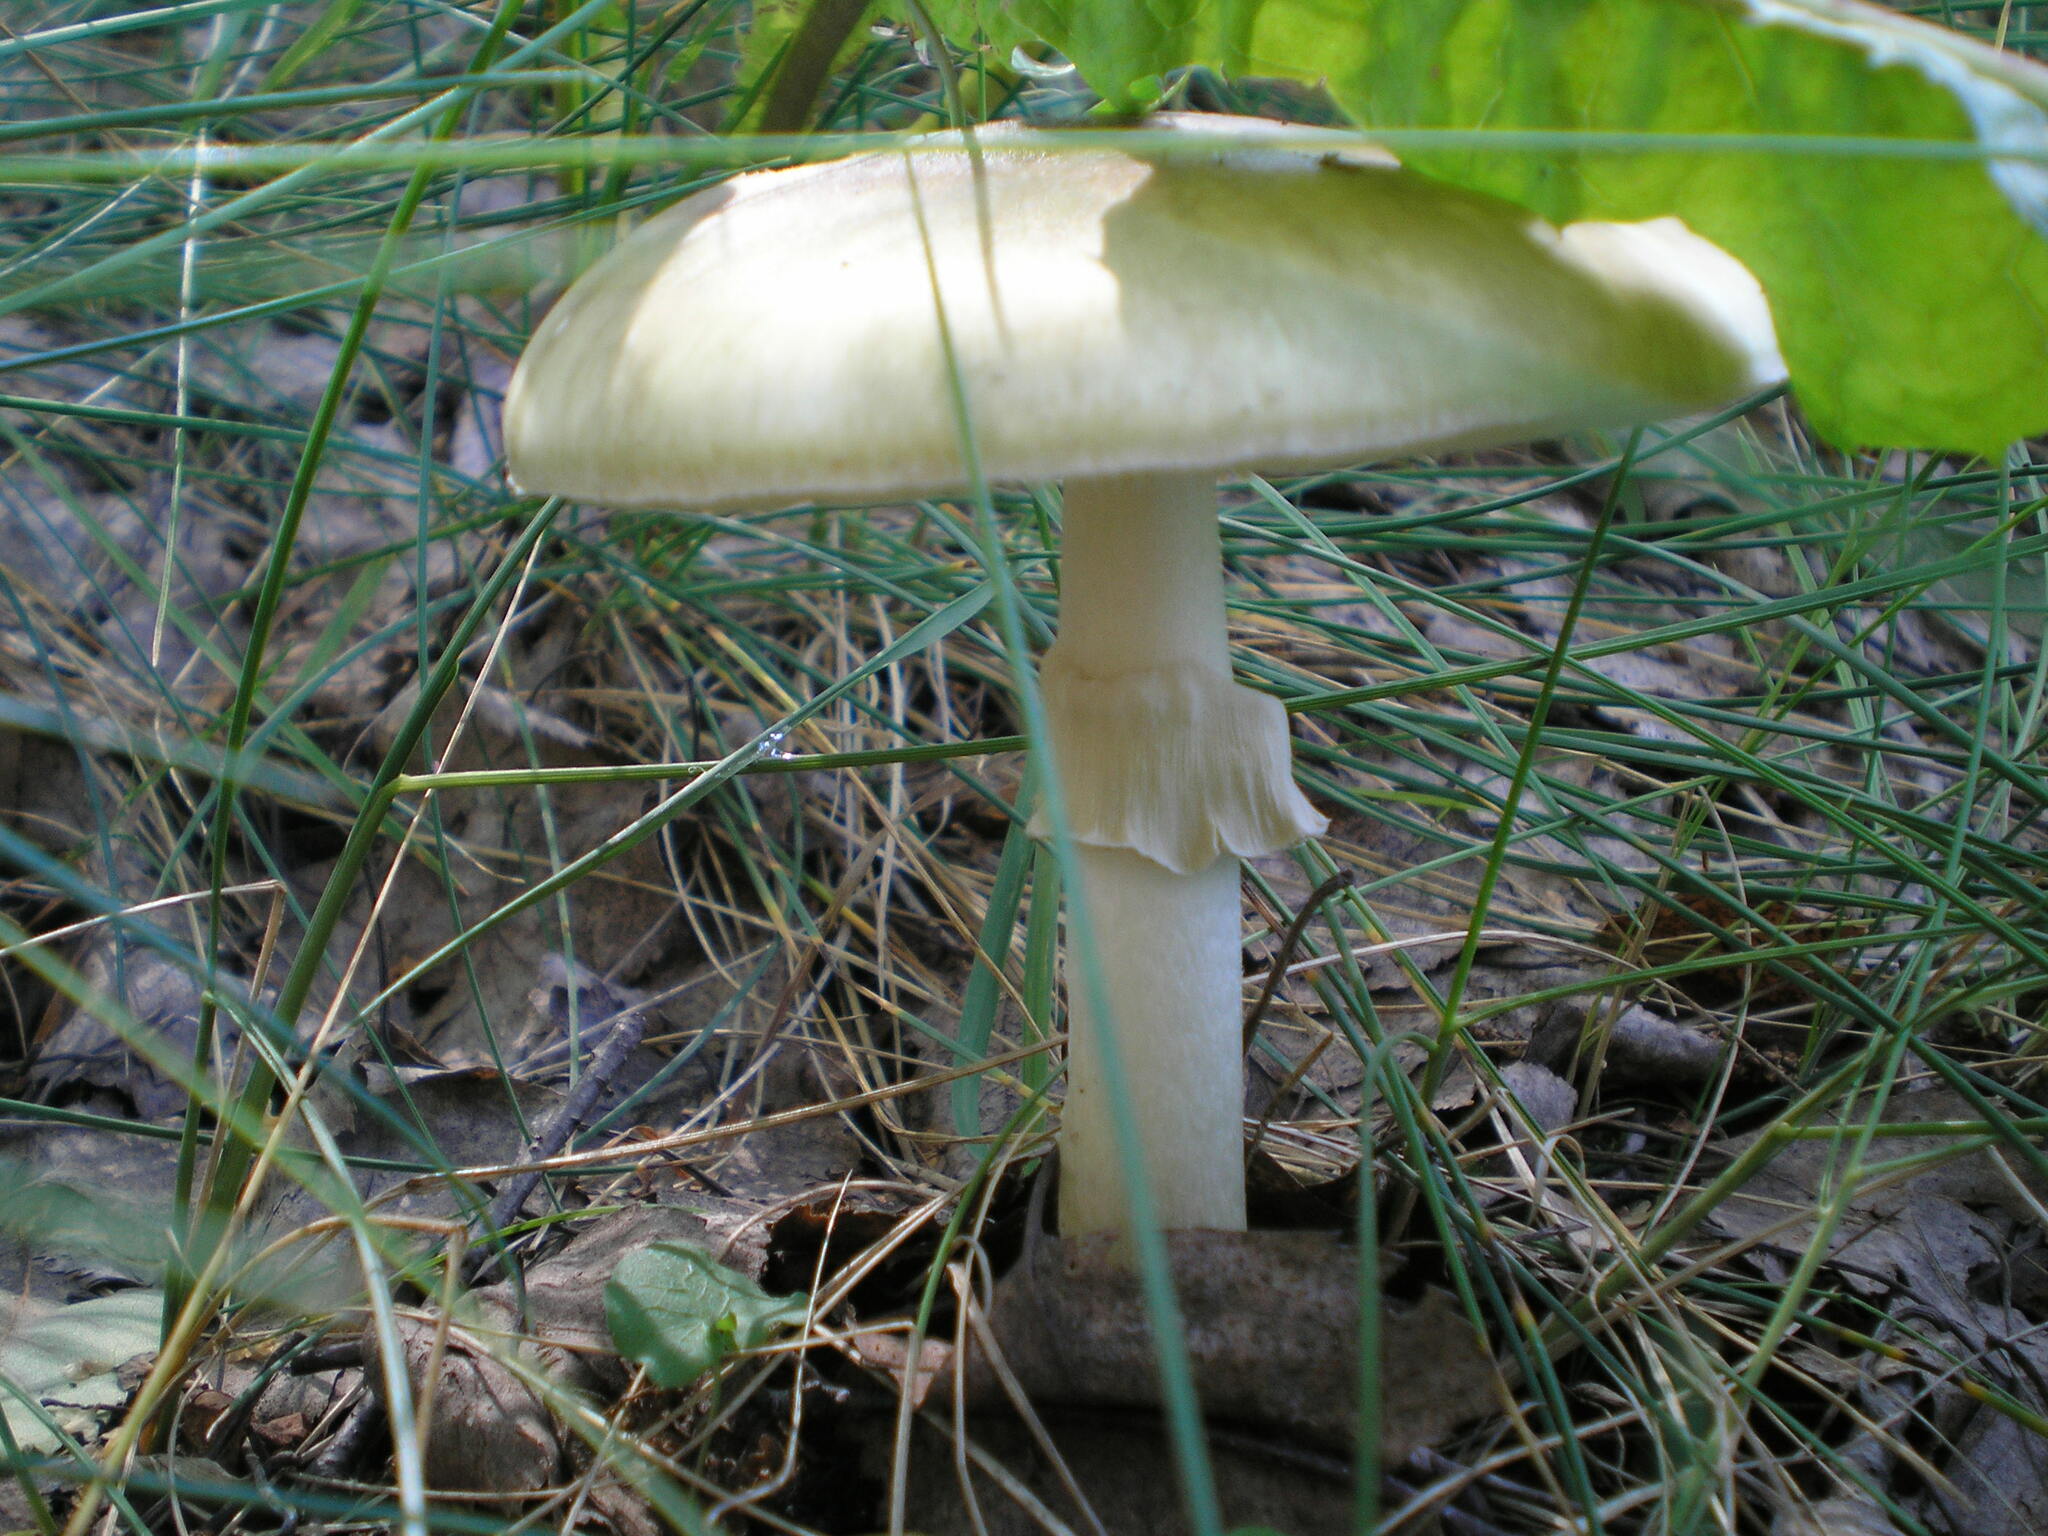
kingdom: Fungi
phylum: Basidiomycota
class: Agaricomycetes
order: Agaricales
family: Amanitaceae
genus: Amanita
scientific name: Amanita phalloides
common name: Death cap
